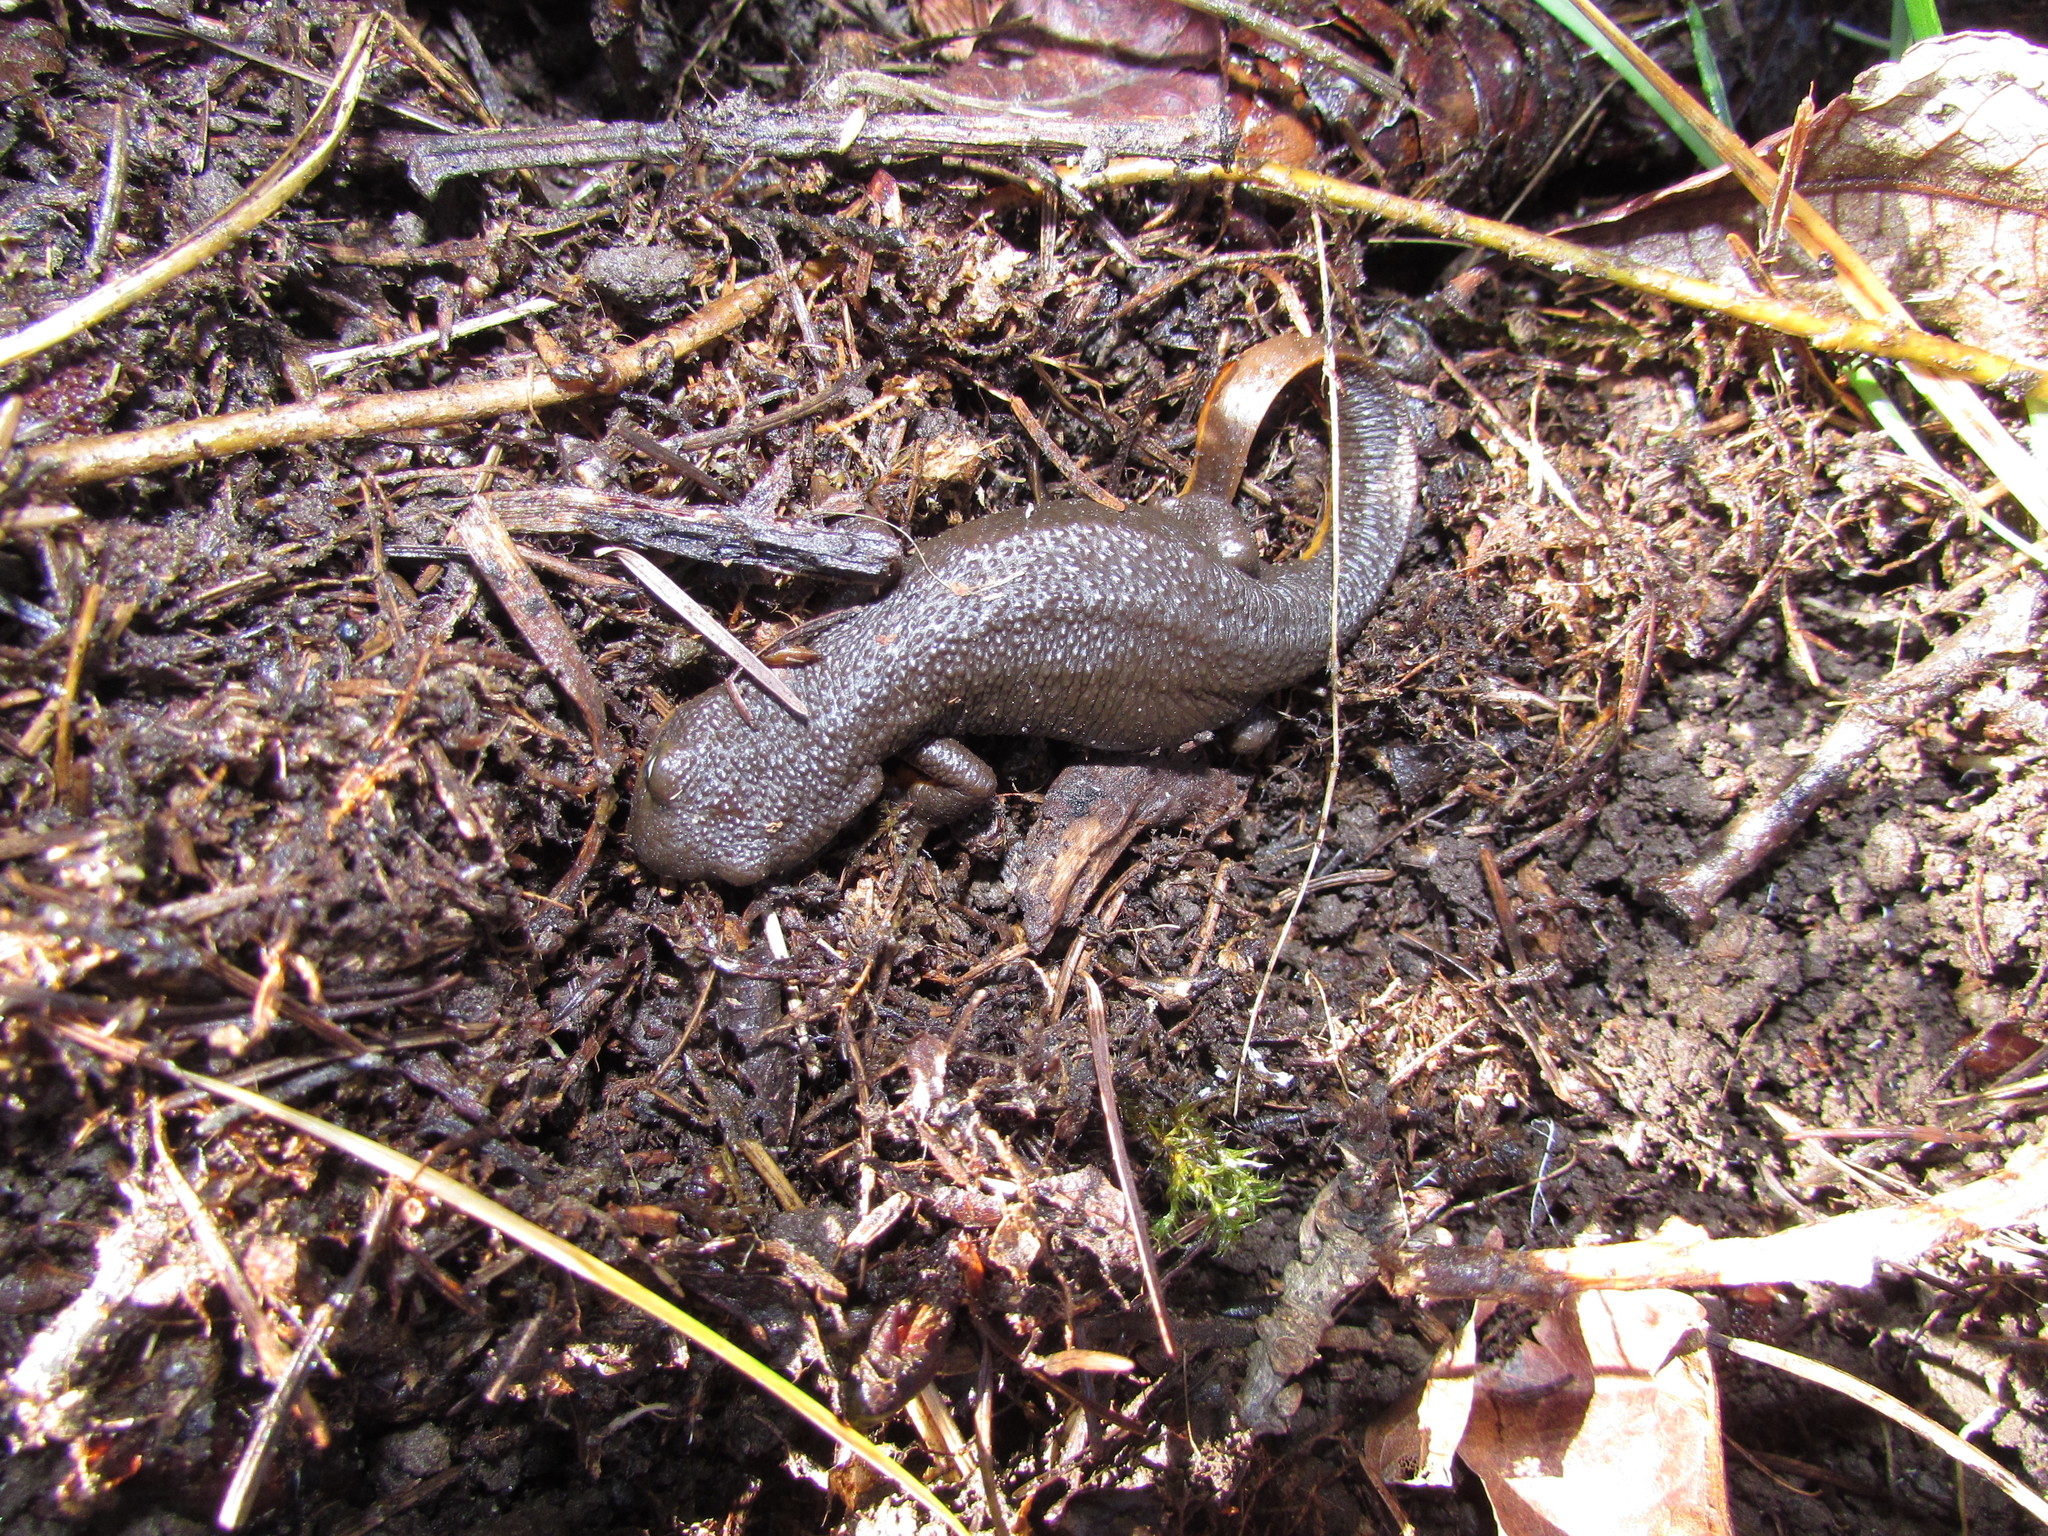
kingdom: Animalia
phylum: Chordata
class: Amphibia
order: Caudata
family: Salamandridae
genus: Taricha
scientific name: Taricha granulosa
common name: Roughskin newt
